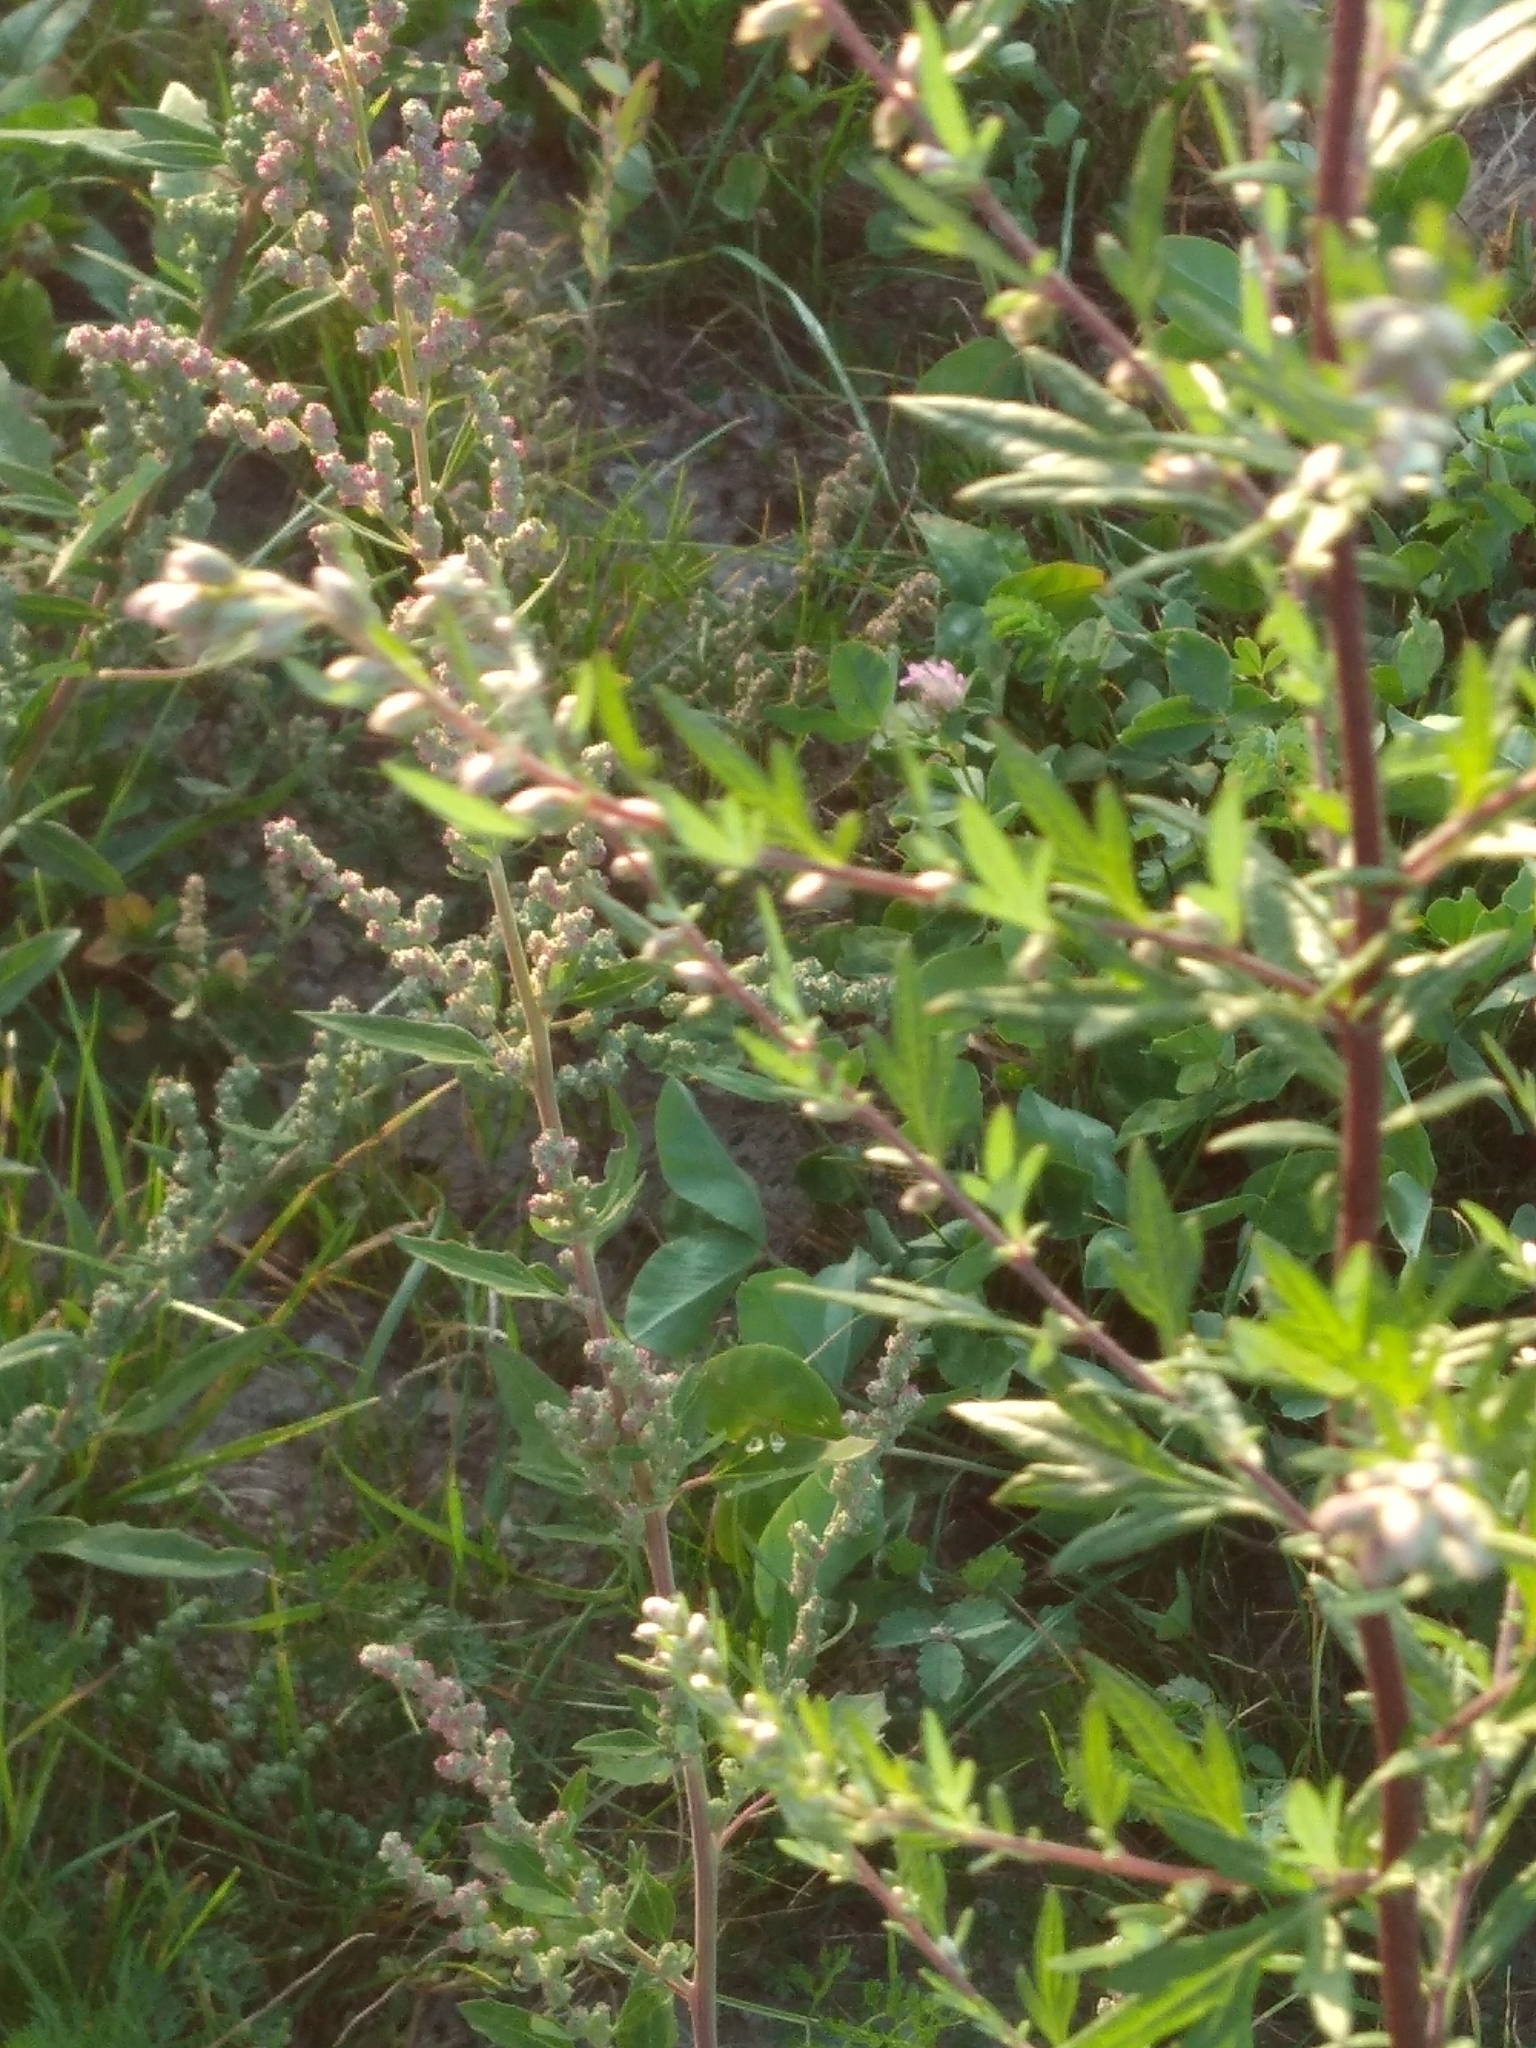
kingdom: Plantae
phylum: Tracheophyta
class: Magnoliopsida
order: Asterales
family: Asteraceae
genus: Artemisia
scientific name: Artemisia vulgaris
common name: Mugwort
